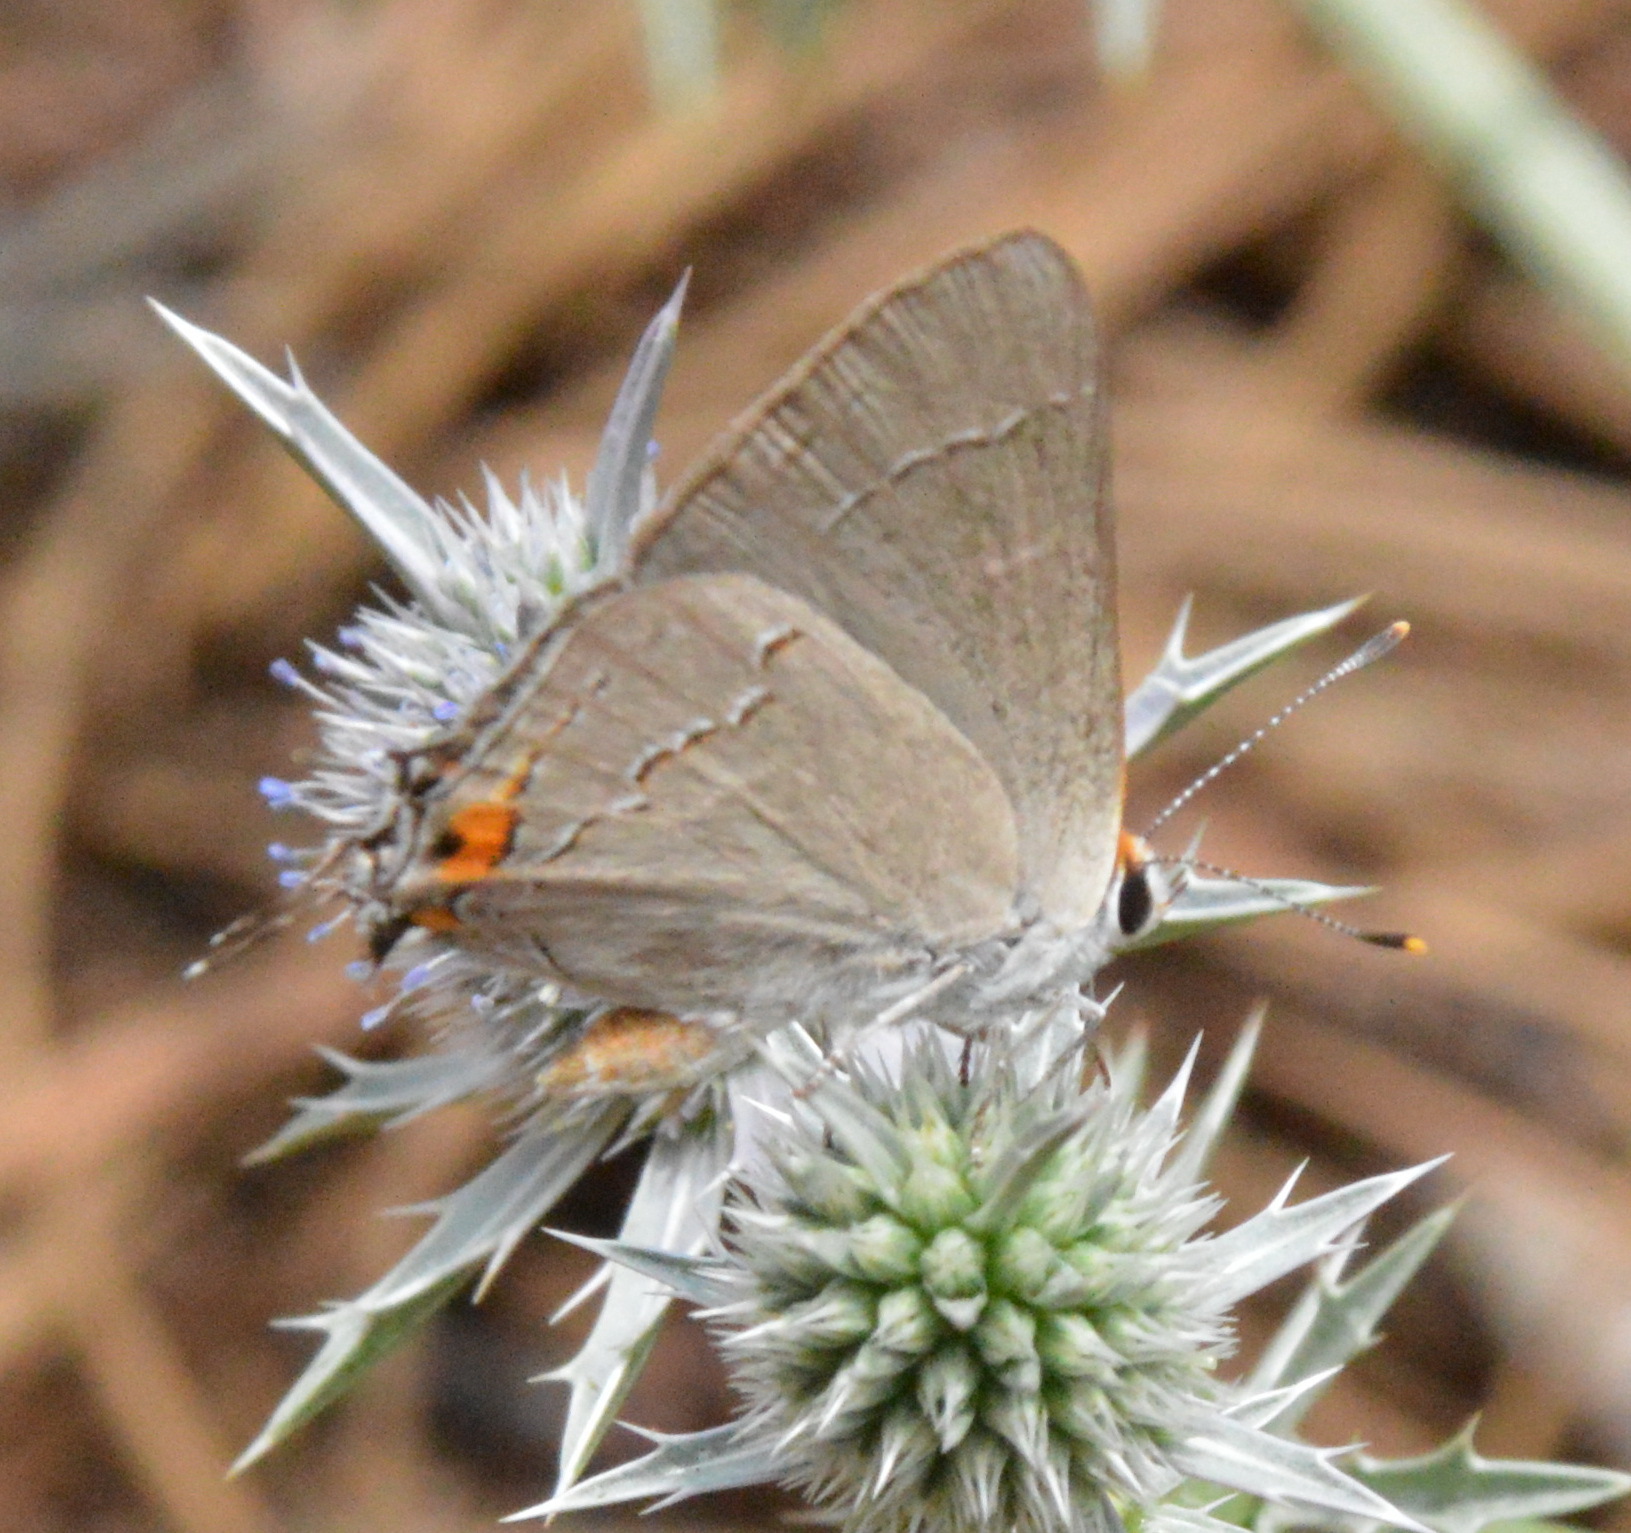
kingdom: Animalia
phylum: Arthropoda
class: Insecta
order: Lepidoptera
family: Lycaenidae
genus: Strymon
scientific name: Strymon melinus
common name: Gray hairstreak
